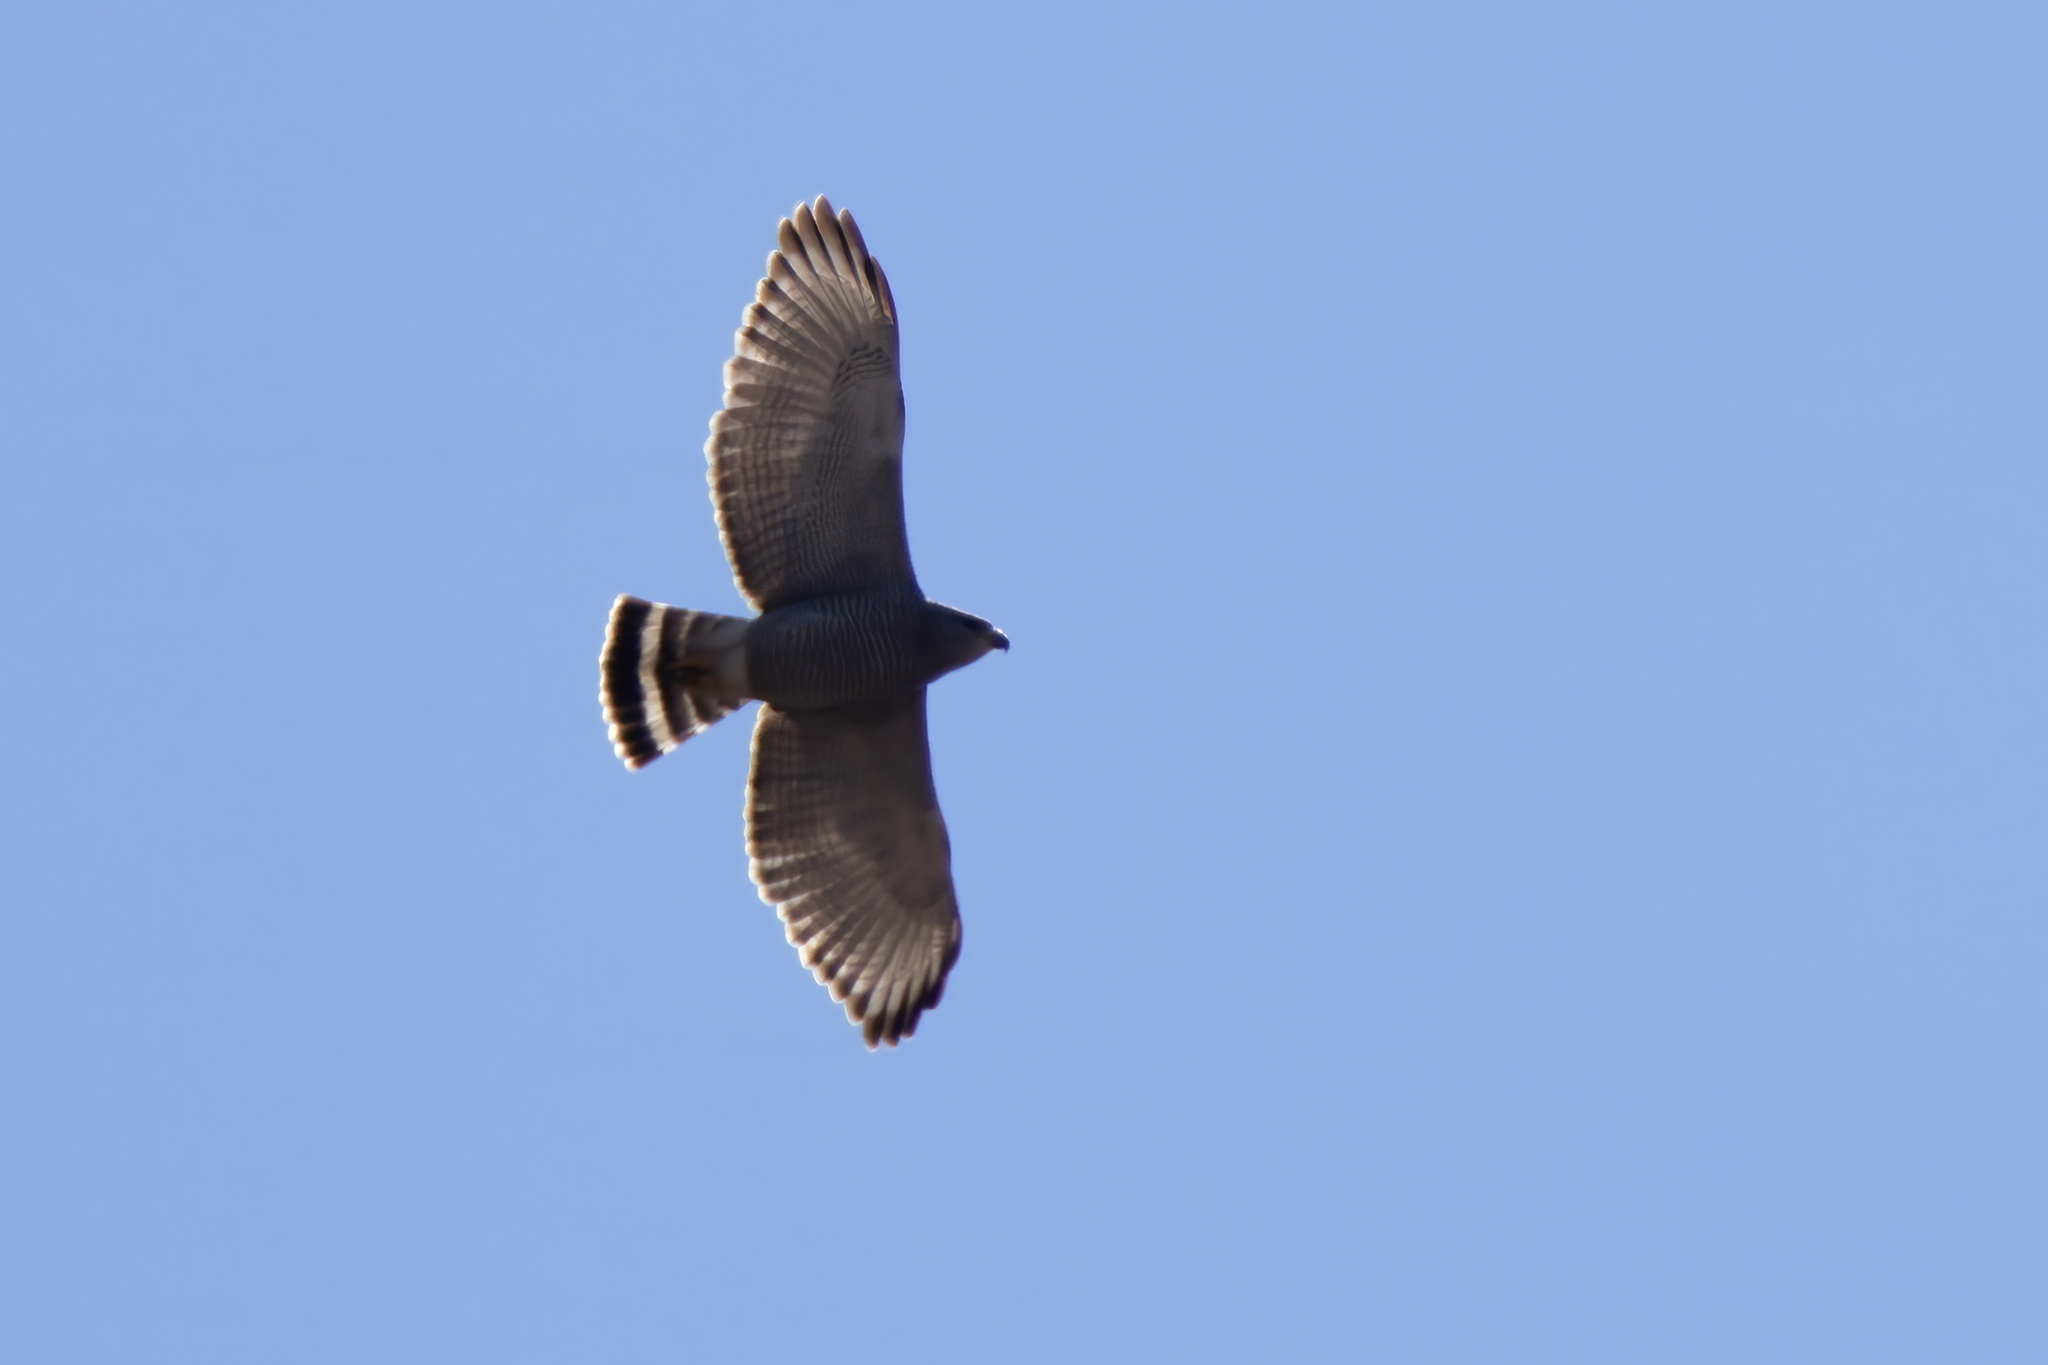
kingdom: Animalia
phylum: Chordata
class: Aves
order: Accipitriformes
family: Accipitridae
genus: Buteo
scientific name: Buteo nitidus
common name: Grey-lined hawk
